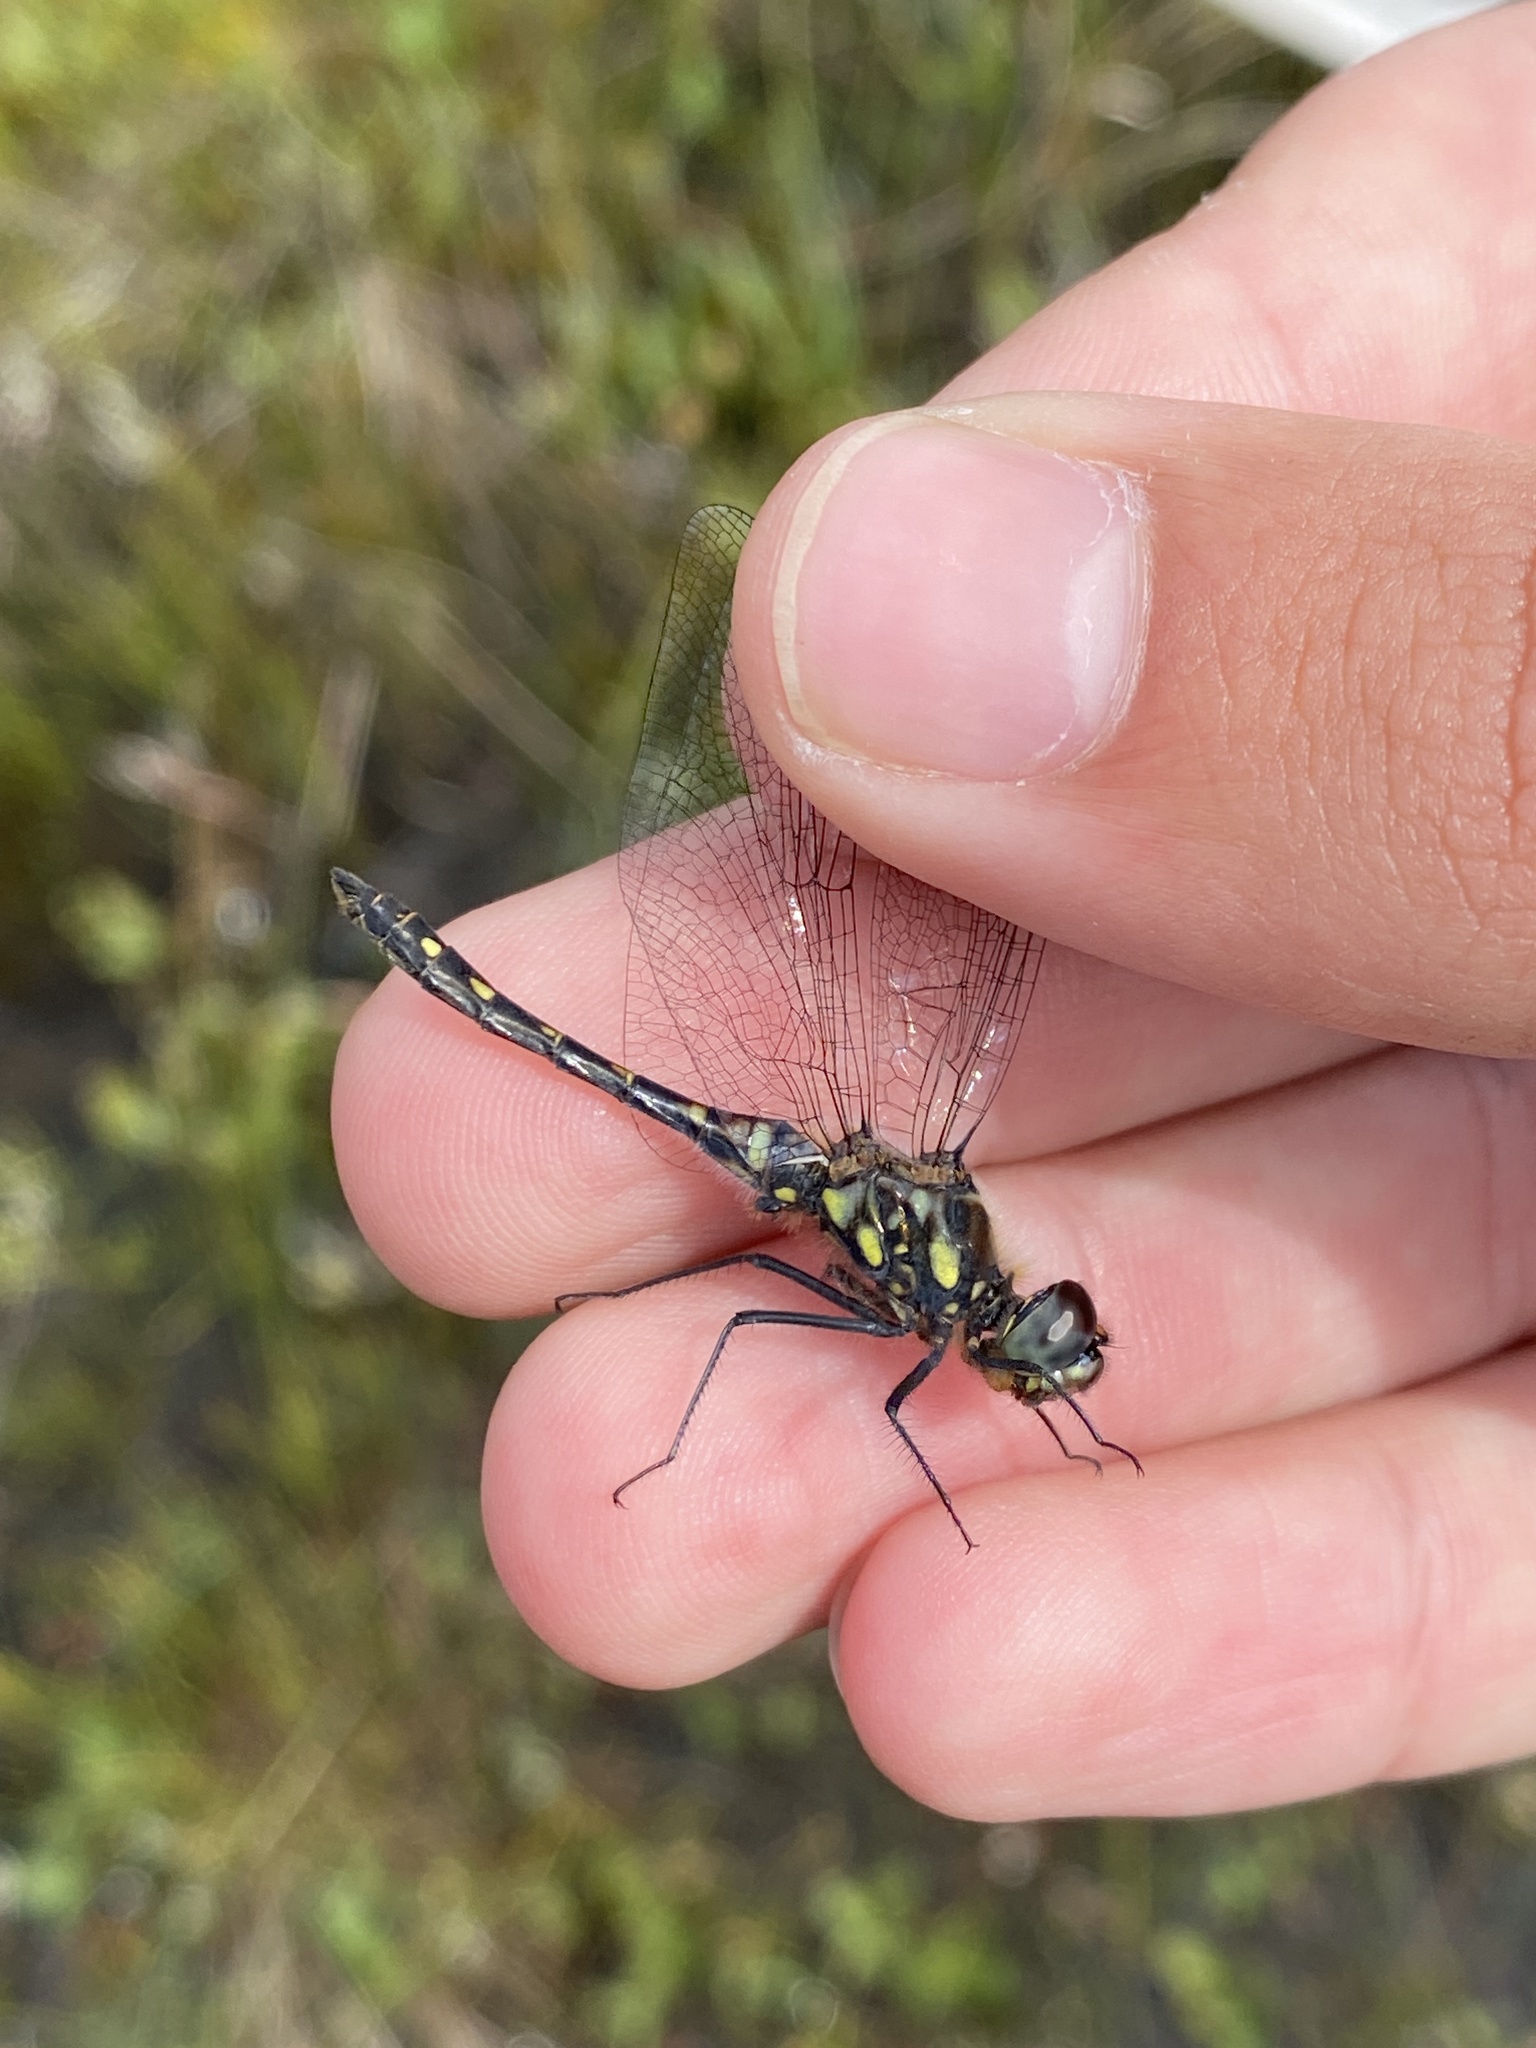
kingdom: Animalia
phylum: Arthropoda
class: Insecta
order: Odonata
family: Libellulidae
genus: Sympetrum
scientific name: Sympetrum danae
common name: Black darter
